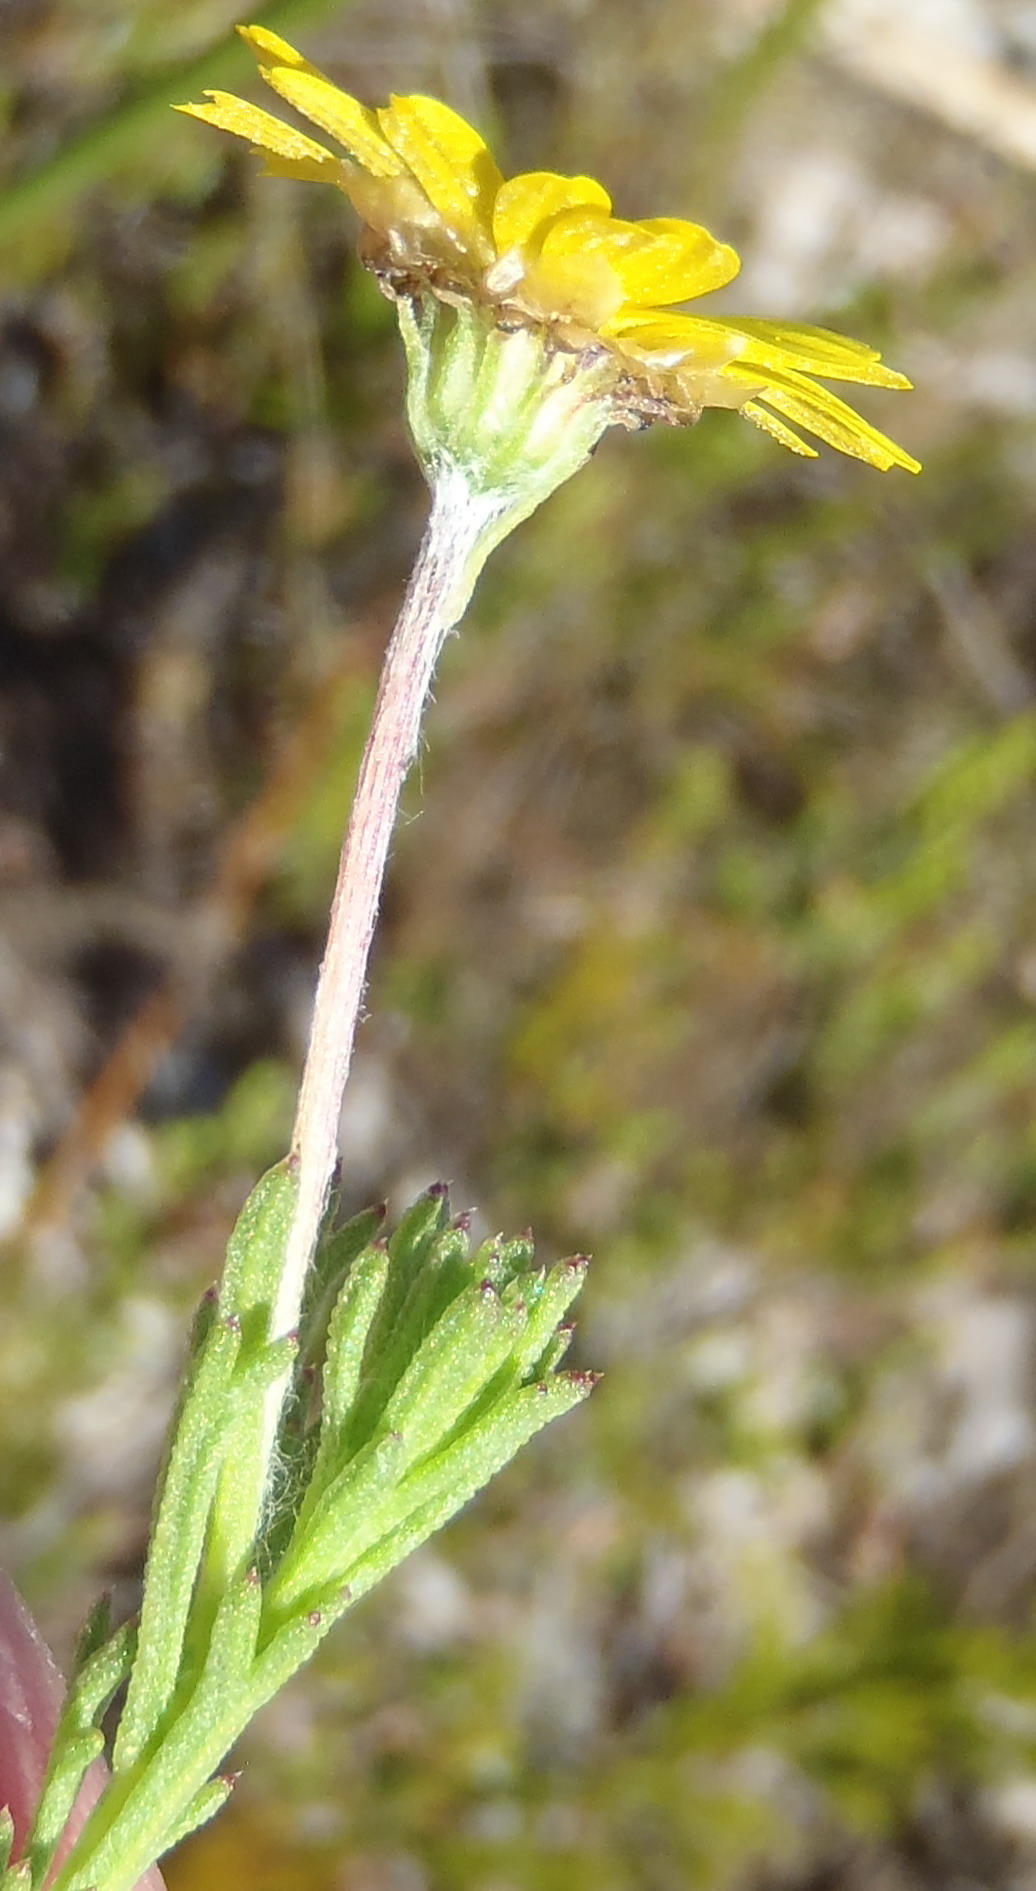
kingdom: Plantae
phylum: Tracheophyta
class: Magnoliopsida
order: Asterales
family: Asteraceae
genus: Ursinia
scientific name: Ursinia trifida
